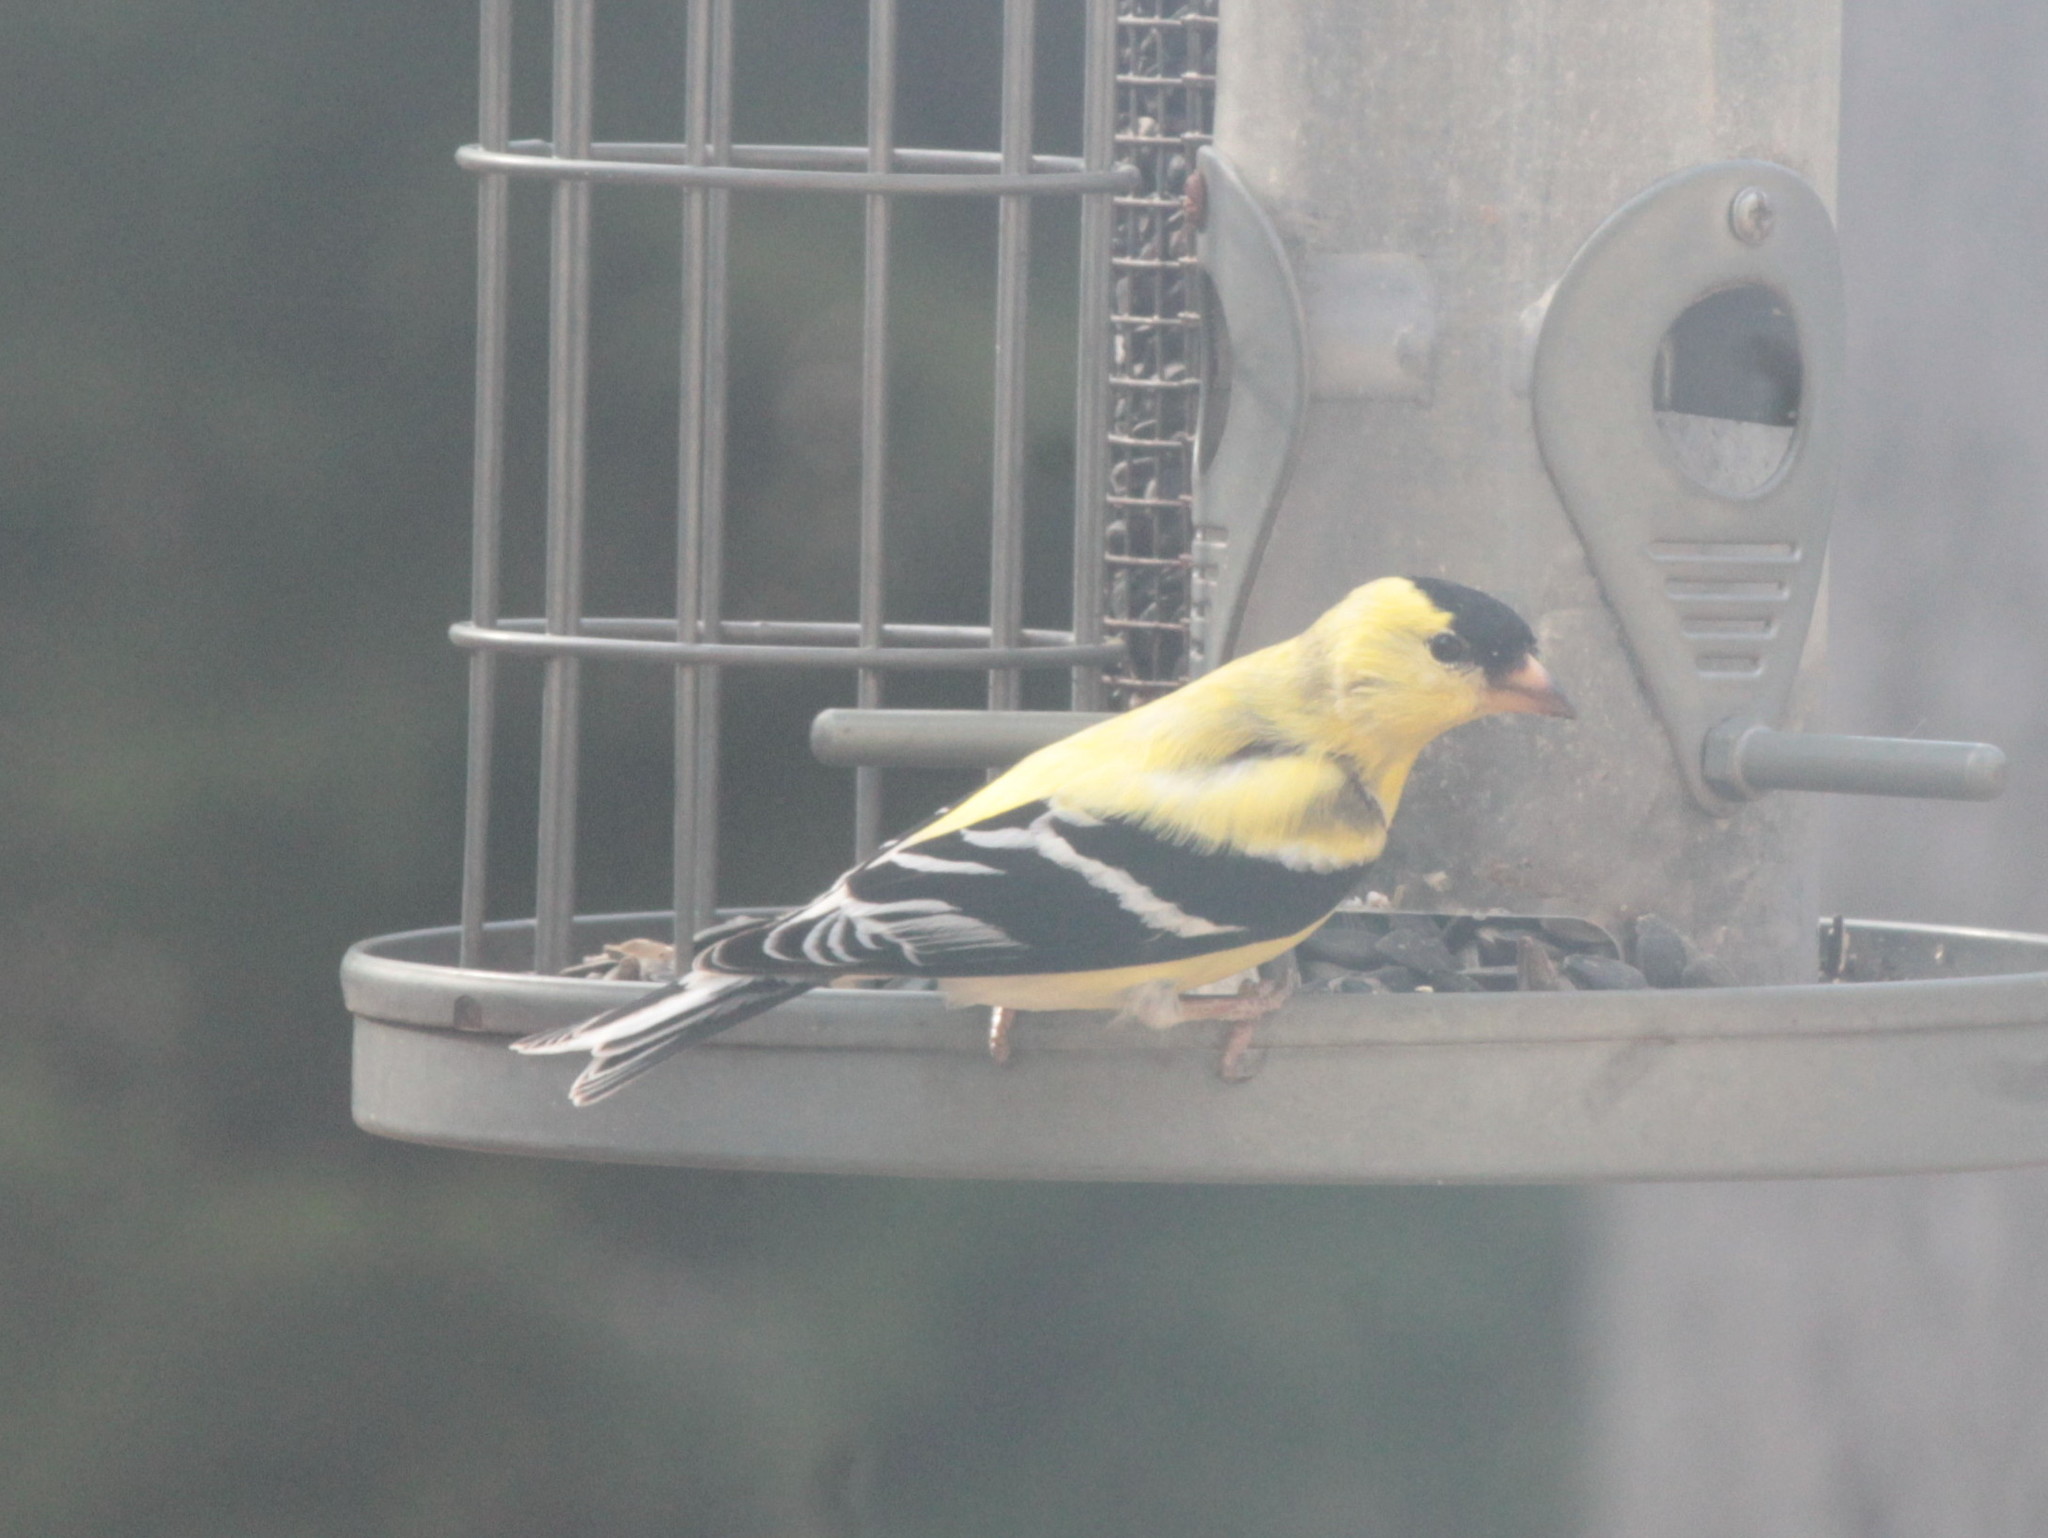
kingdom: Animalia
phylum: Chordata
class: Aves
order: Passeriformes
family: Fringillidae
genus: Spinus
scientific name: Spinus tristis
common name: American goldfinch
